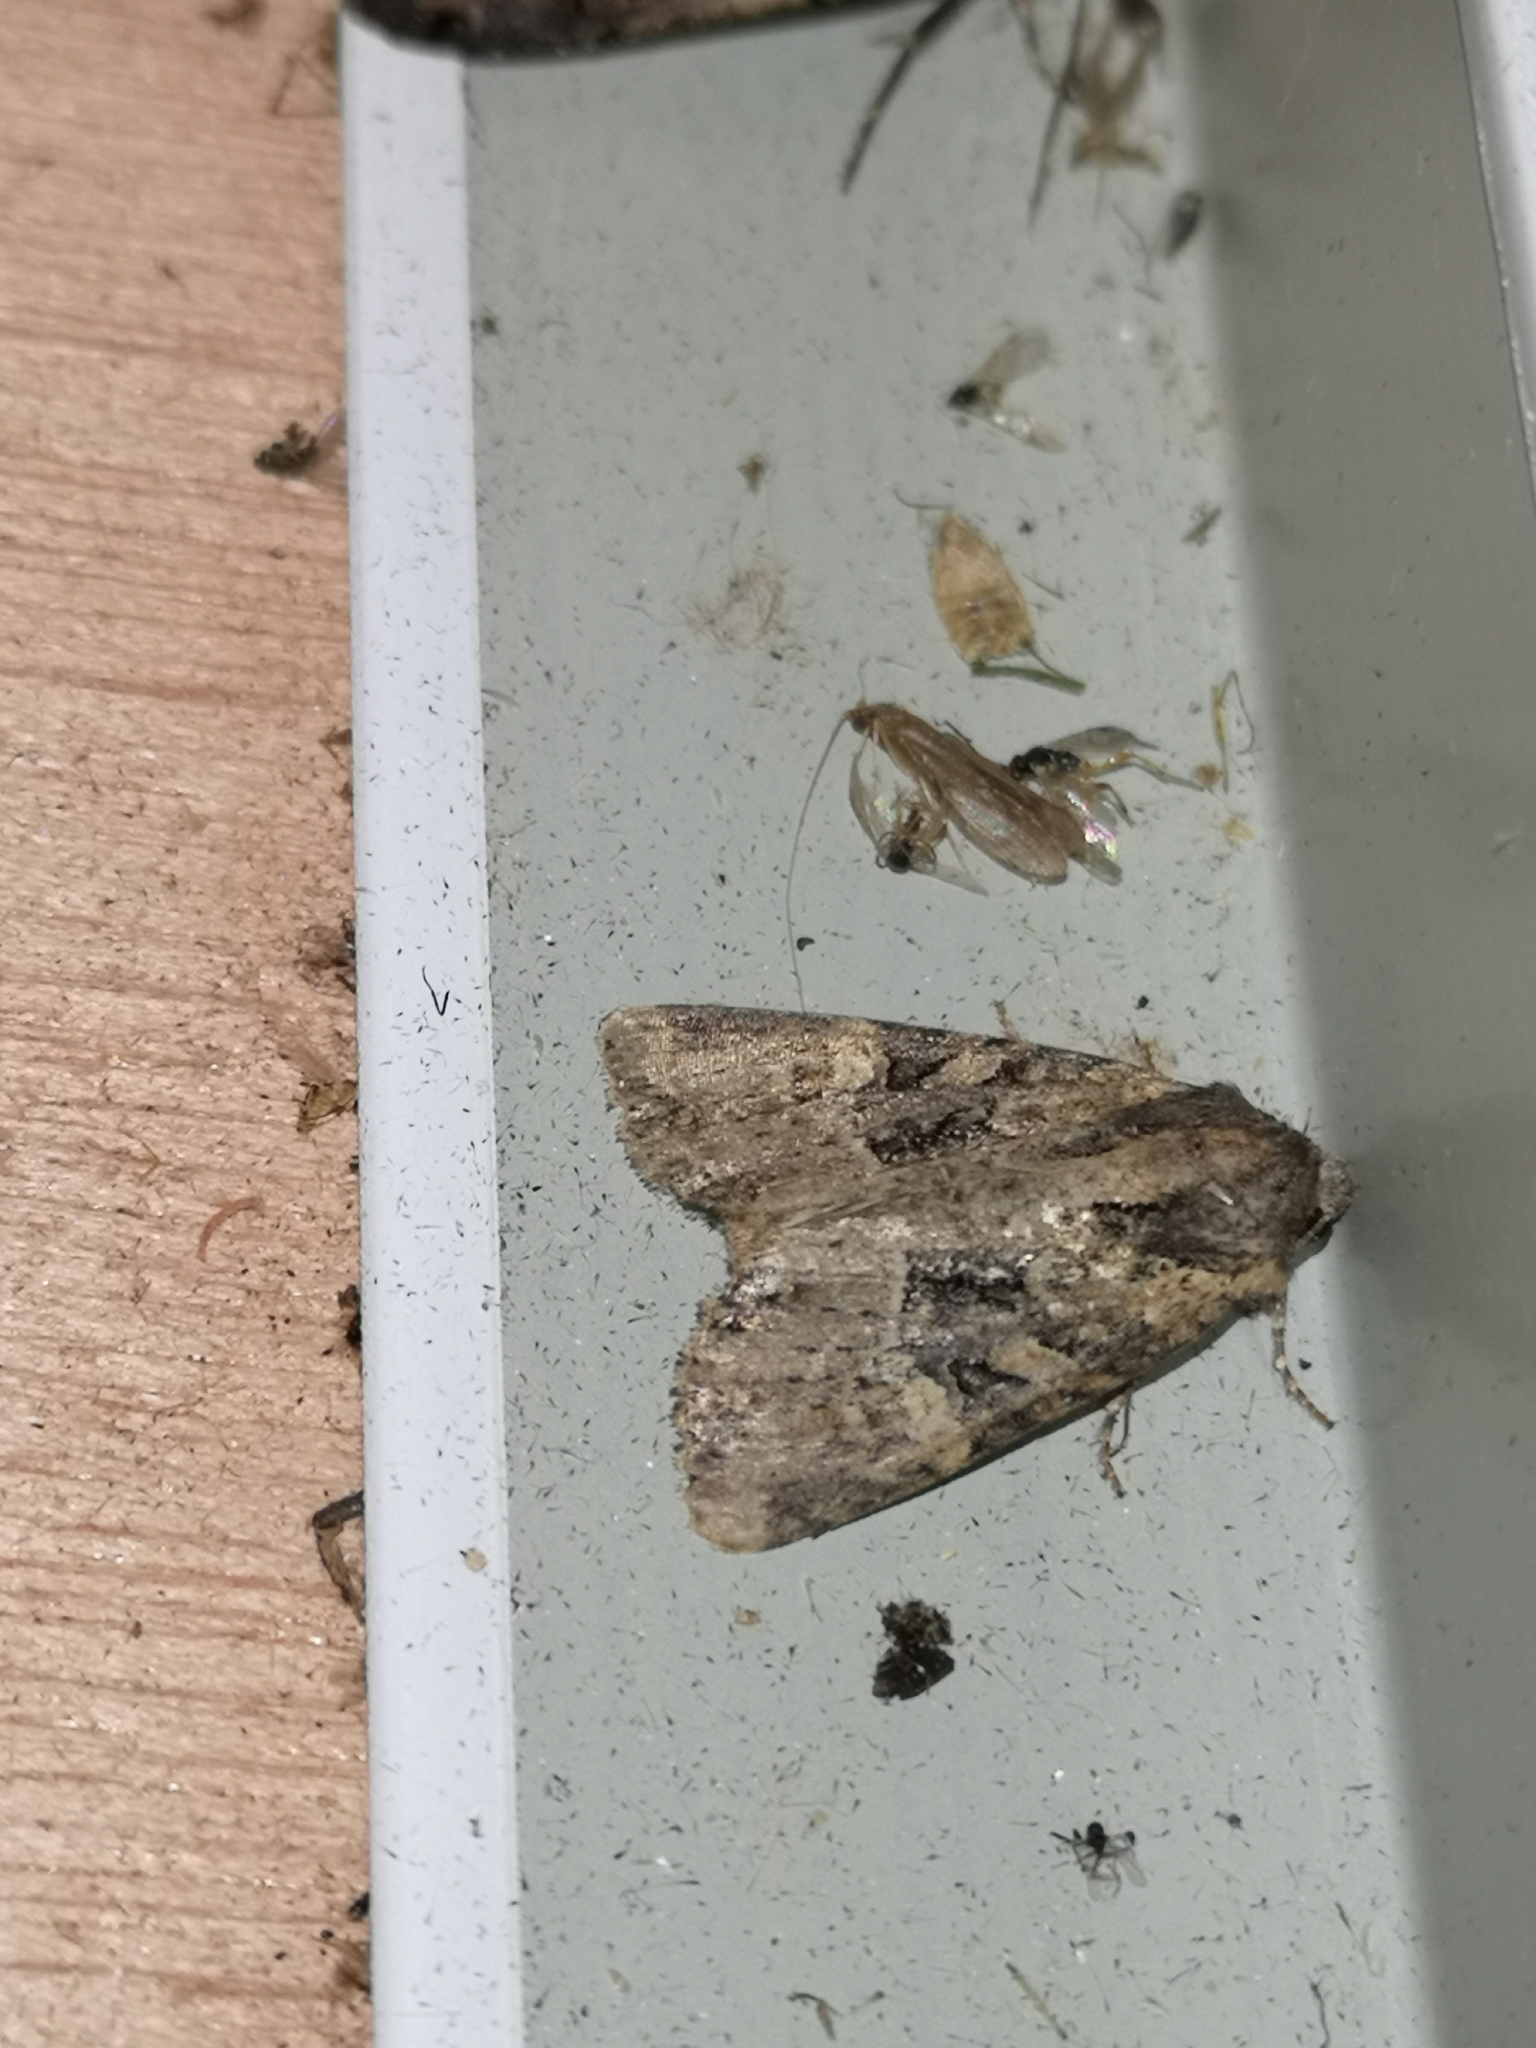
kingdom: Animalia
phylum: Arthropoda
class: Insecta
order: Lepidoptera
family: Noctuidae
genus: Mesapamea
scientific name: Mesapamea
